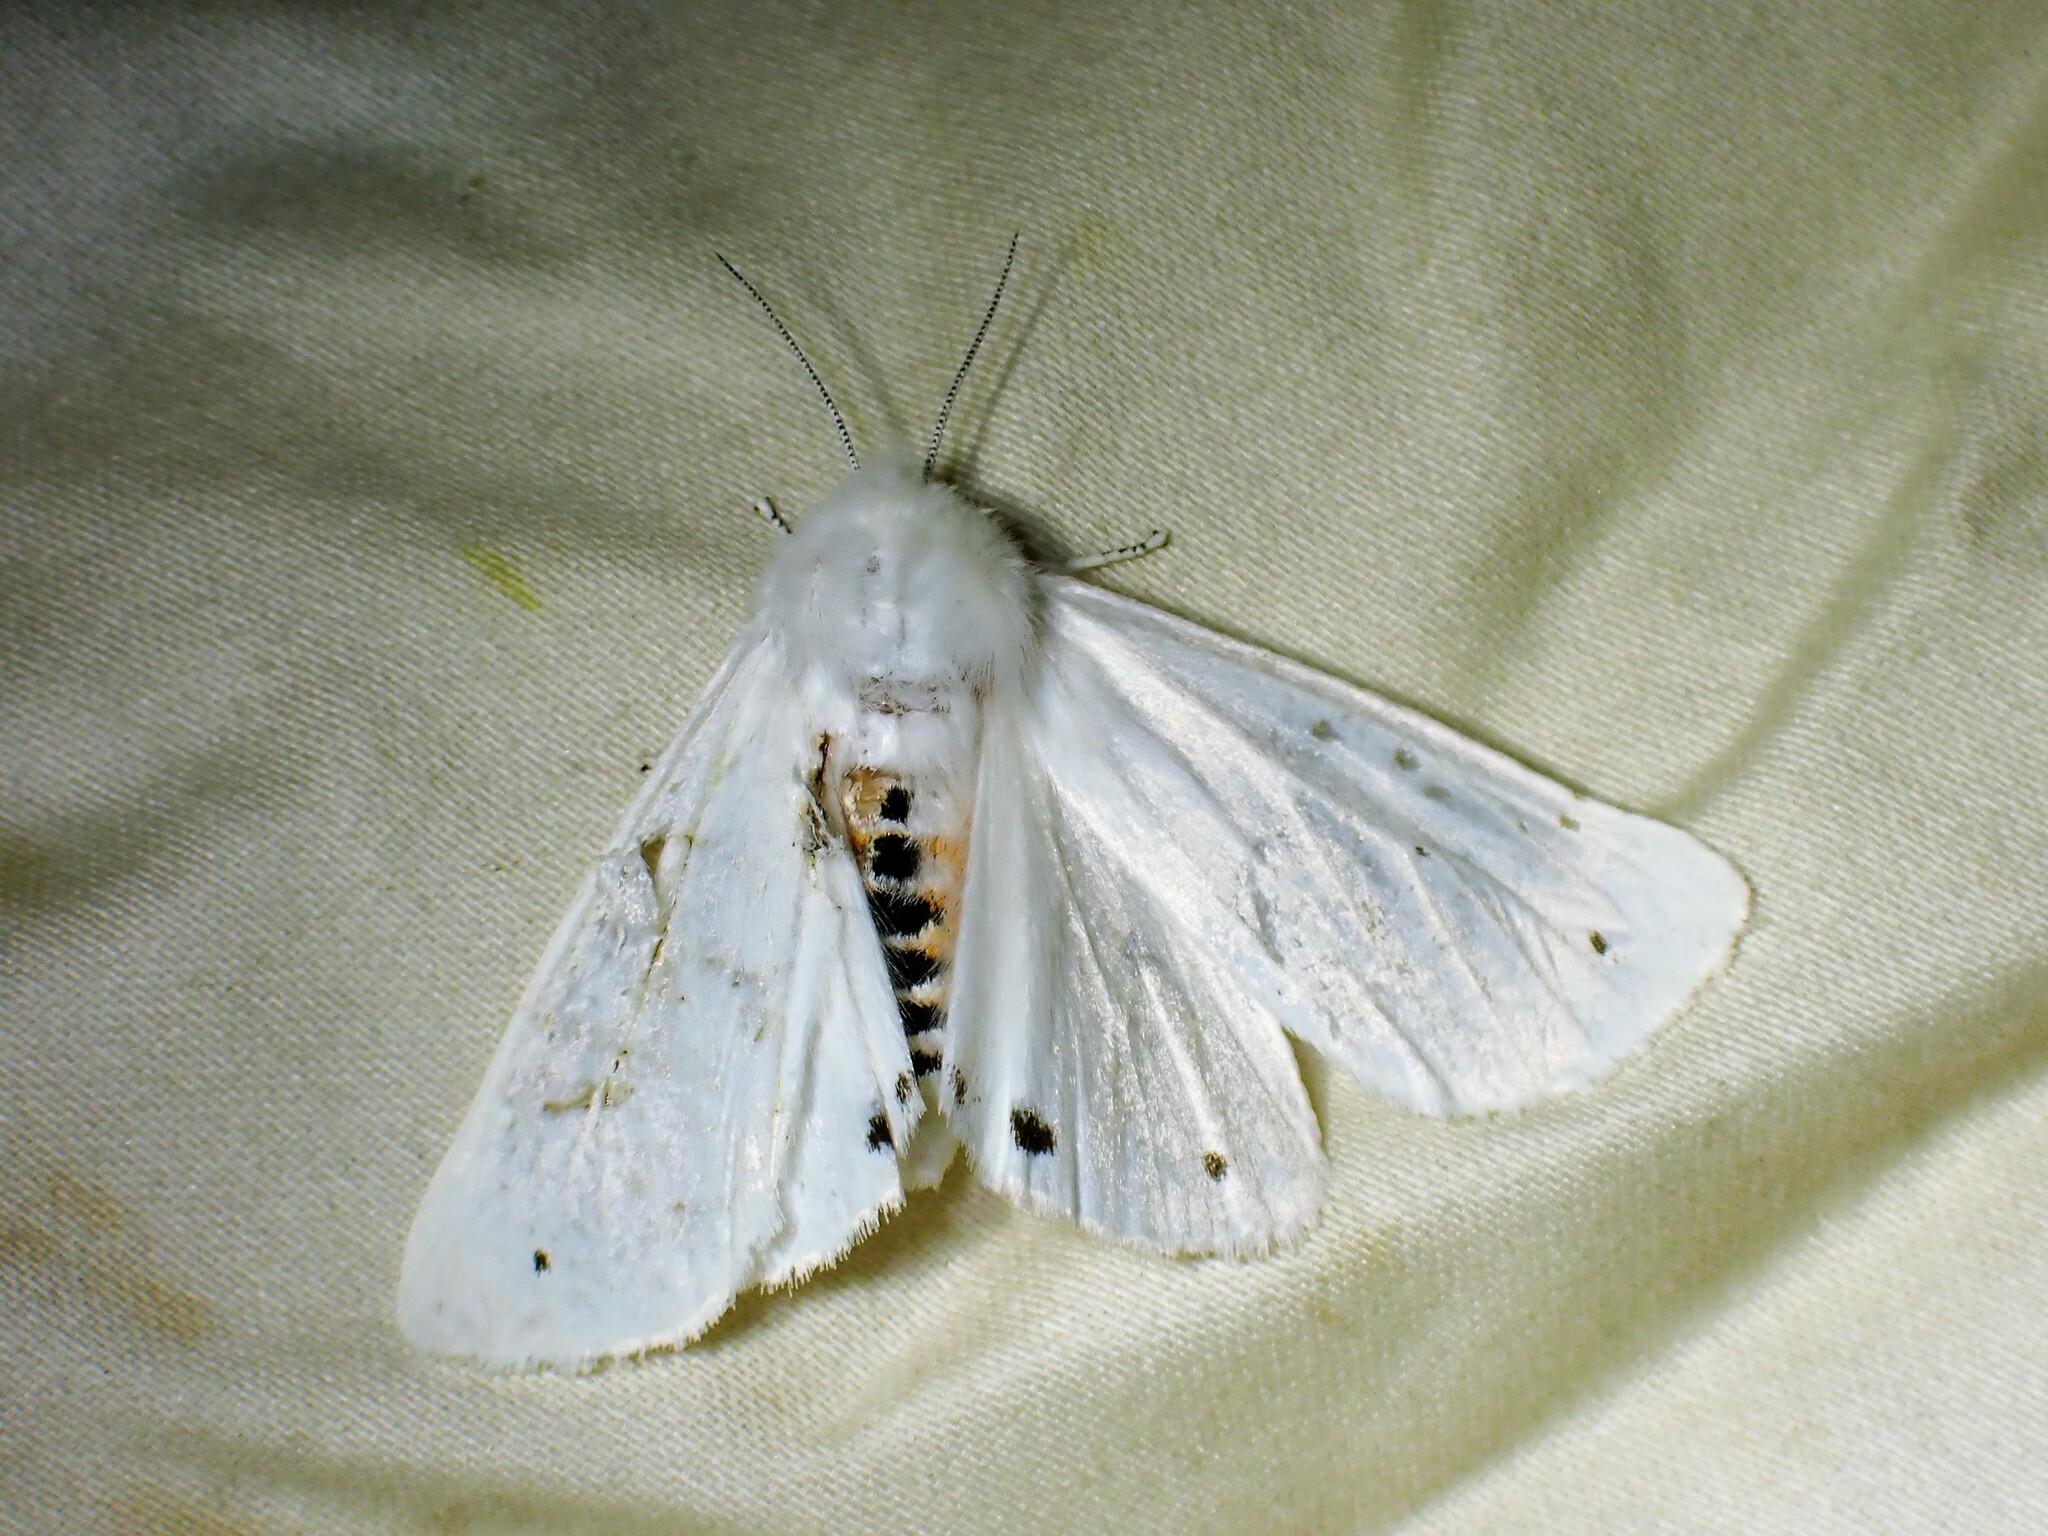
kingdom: Animalia
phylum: Arthropoda
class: Insecta
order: Lepidoptera
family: Erebidae
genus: Spilosoma
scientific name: Spilosoma virginica
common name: Virginia tiger moth
